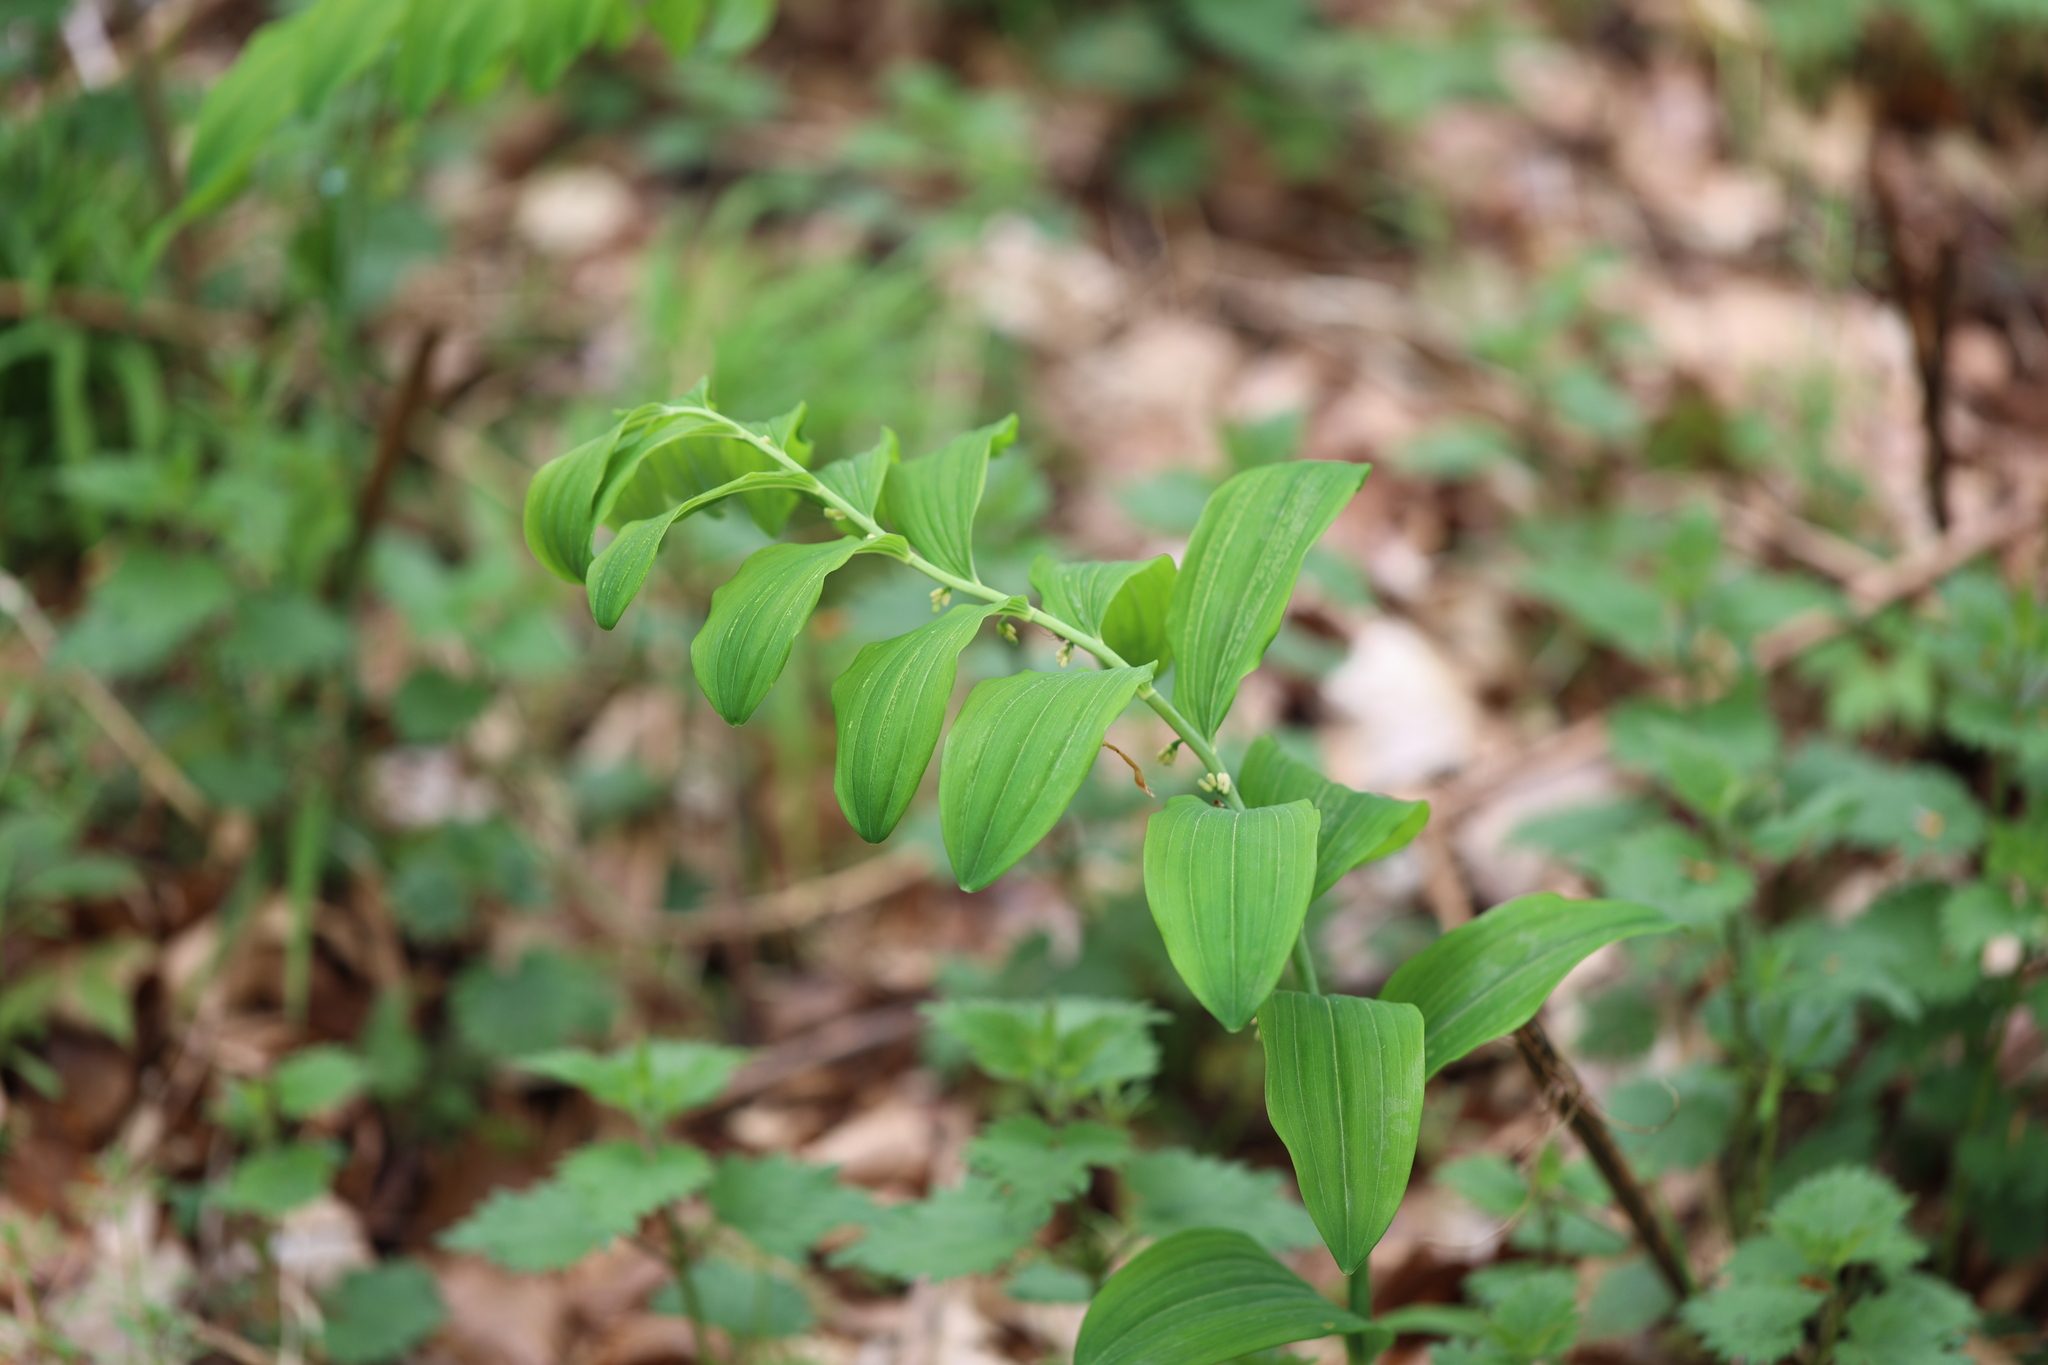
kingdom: Plantae
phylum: Tracheophyta
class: Liliopsida
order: Asparagales
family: Asparagaceae
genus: Polygonatum
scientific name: Polygonatum multiflorum
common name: Solomon's-seal
